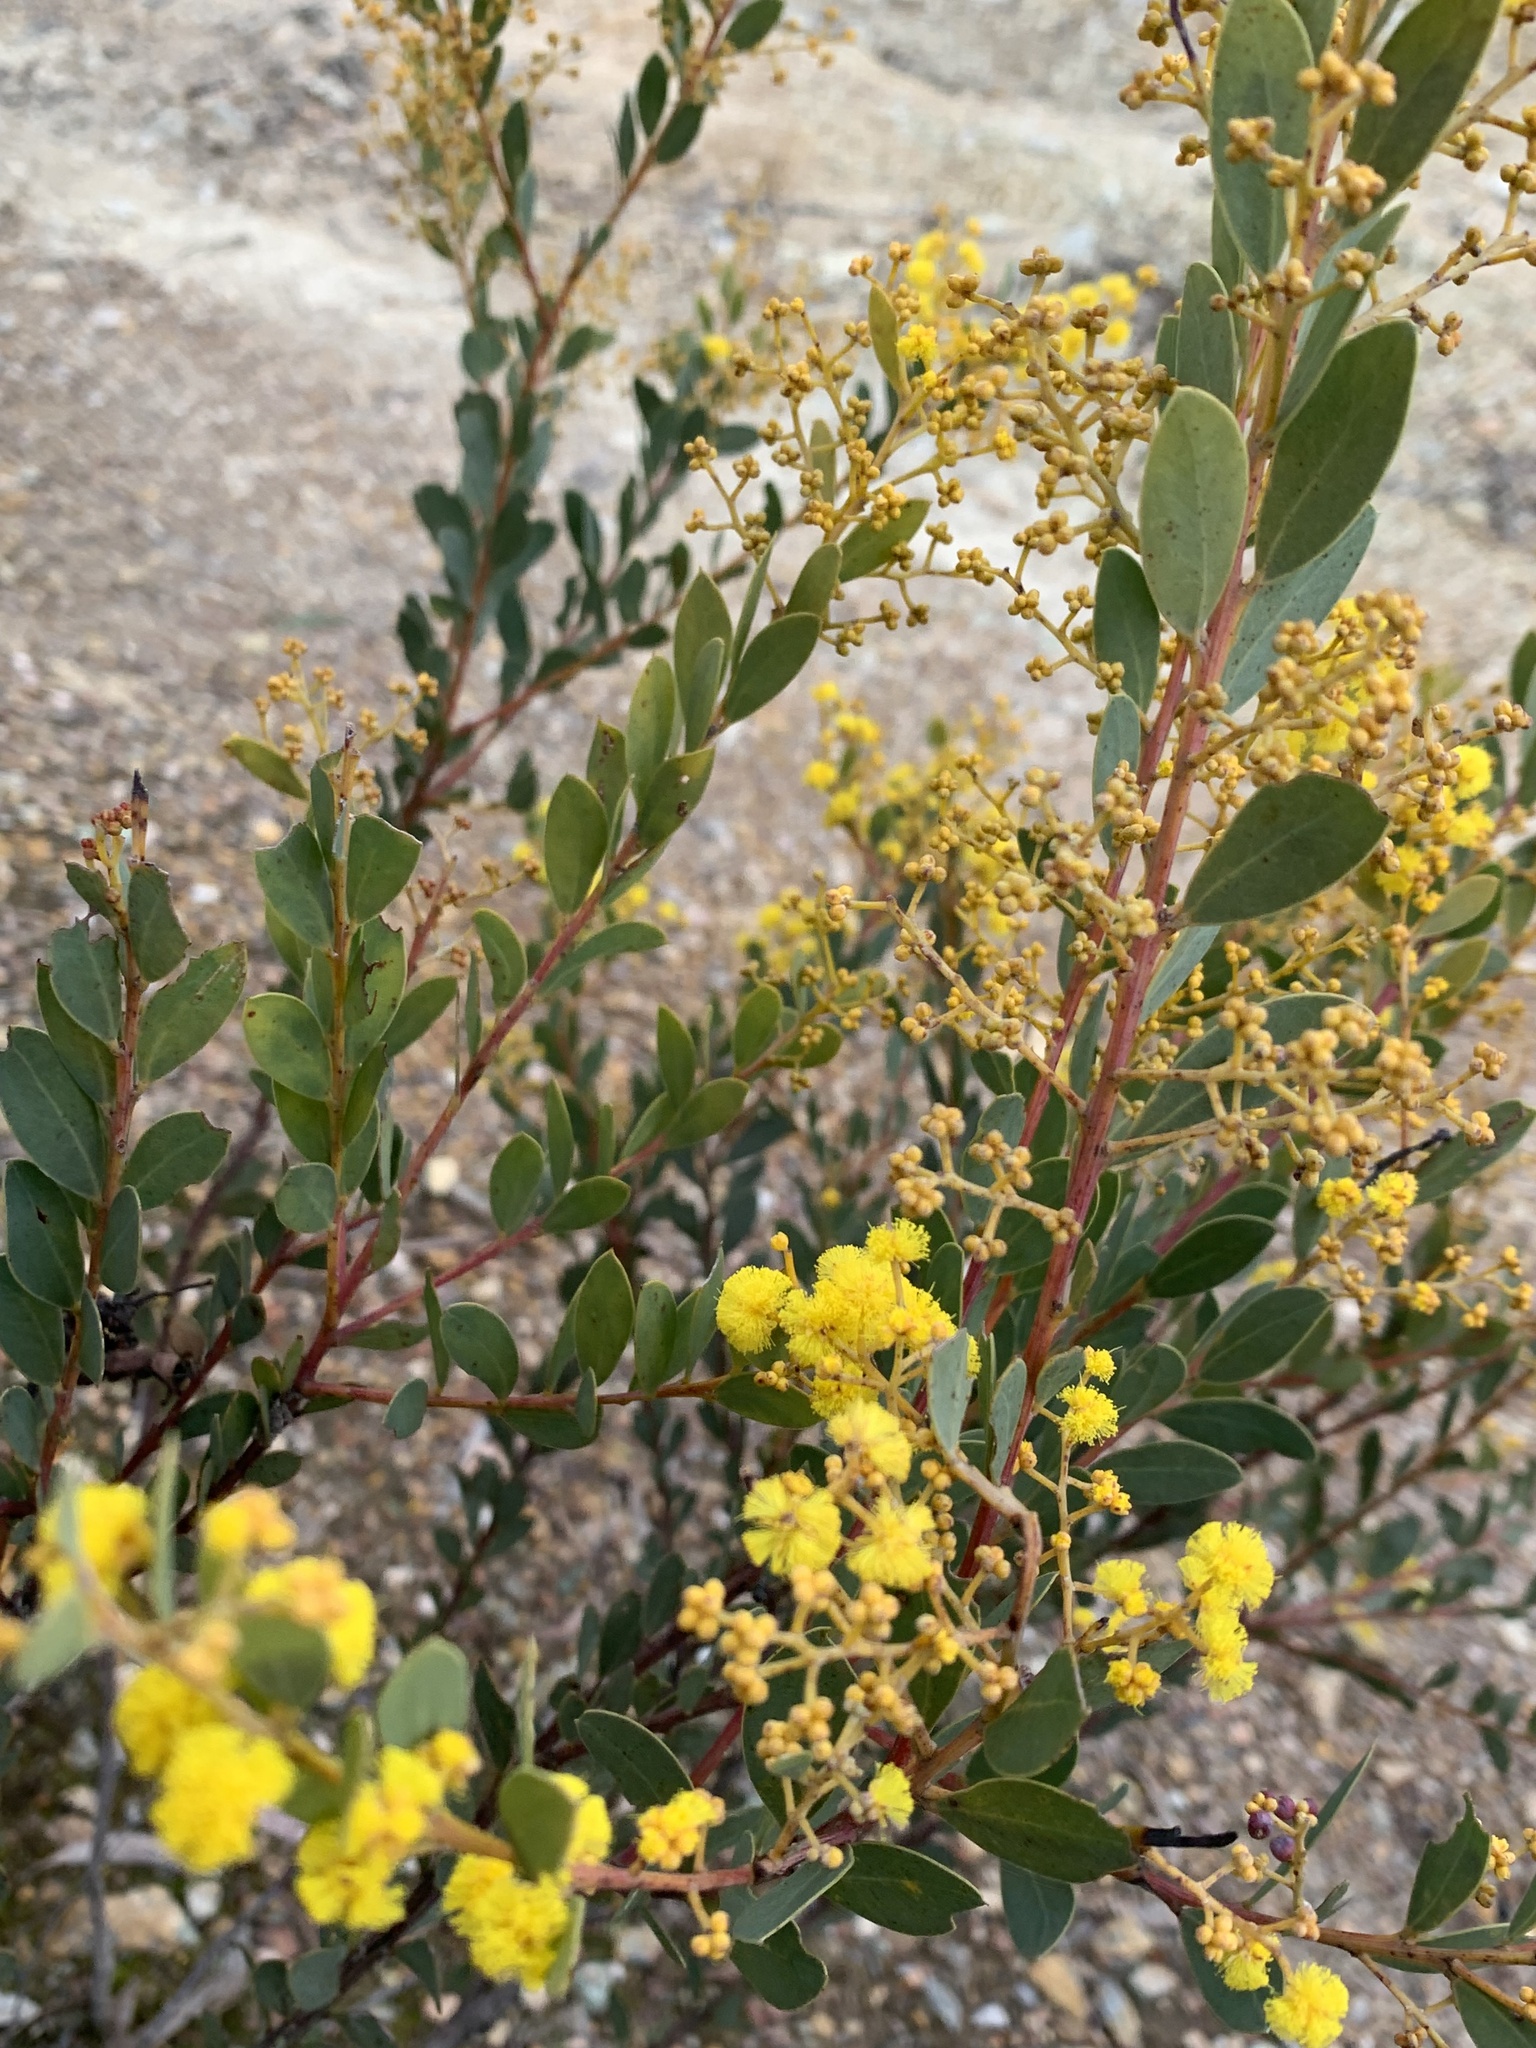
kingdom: Plantae
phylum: Tracheophyta
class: Magnoliopsida
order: Fabales
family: Fabaceae
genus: Acacia
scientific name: Acacia buxifolia
